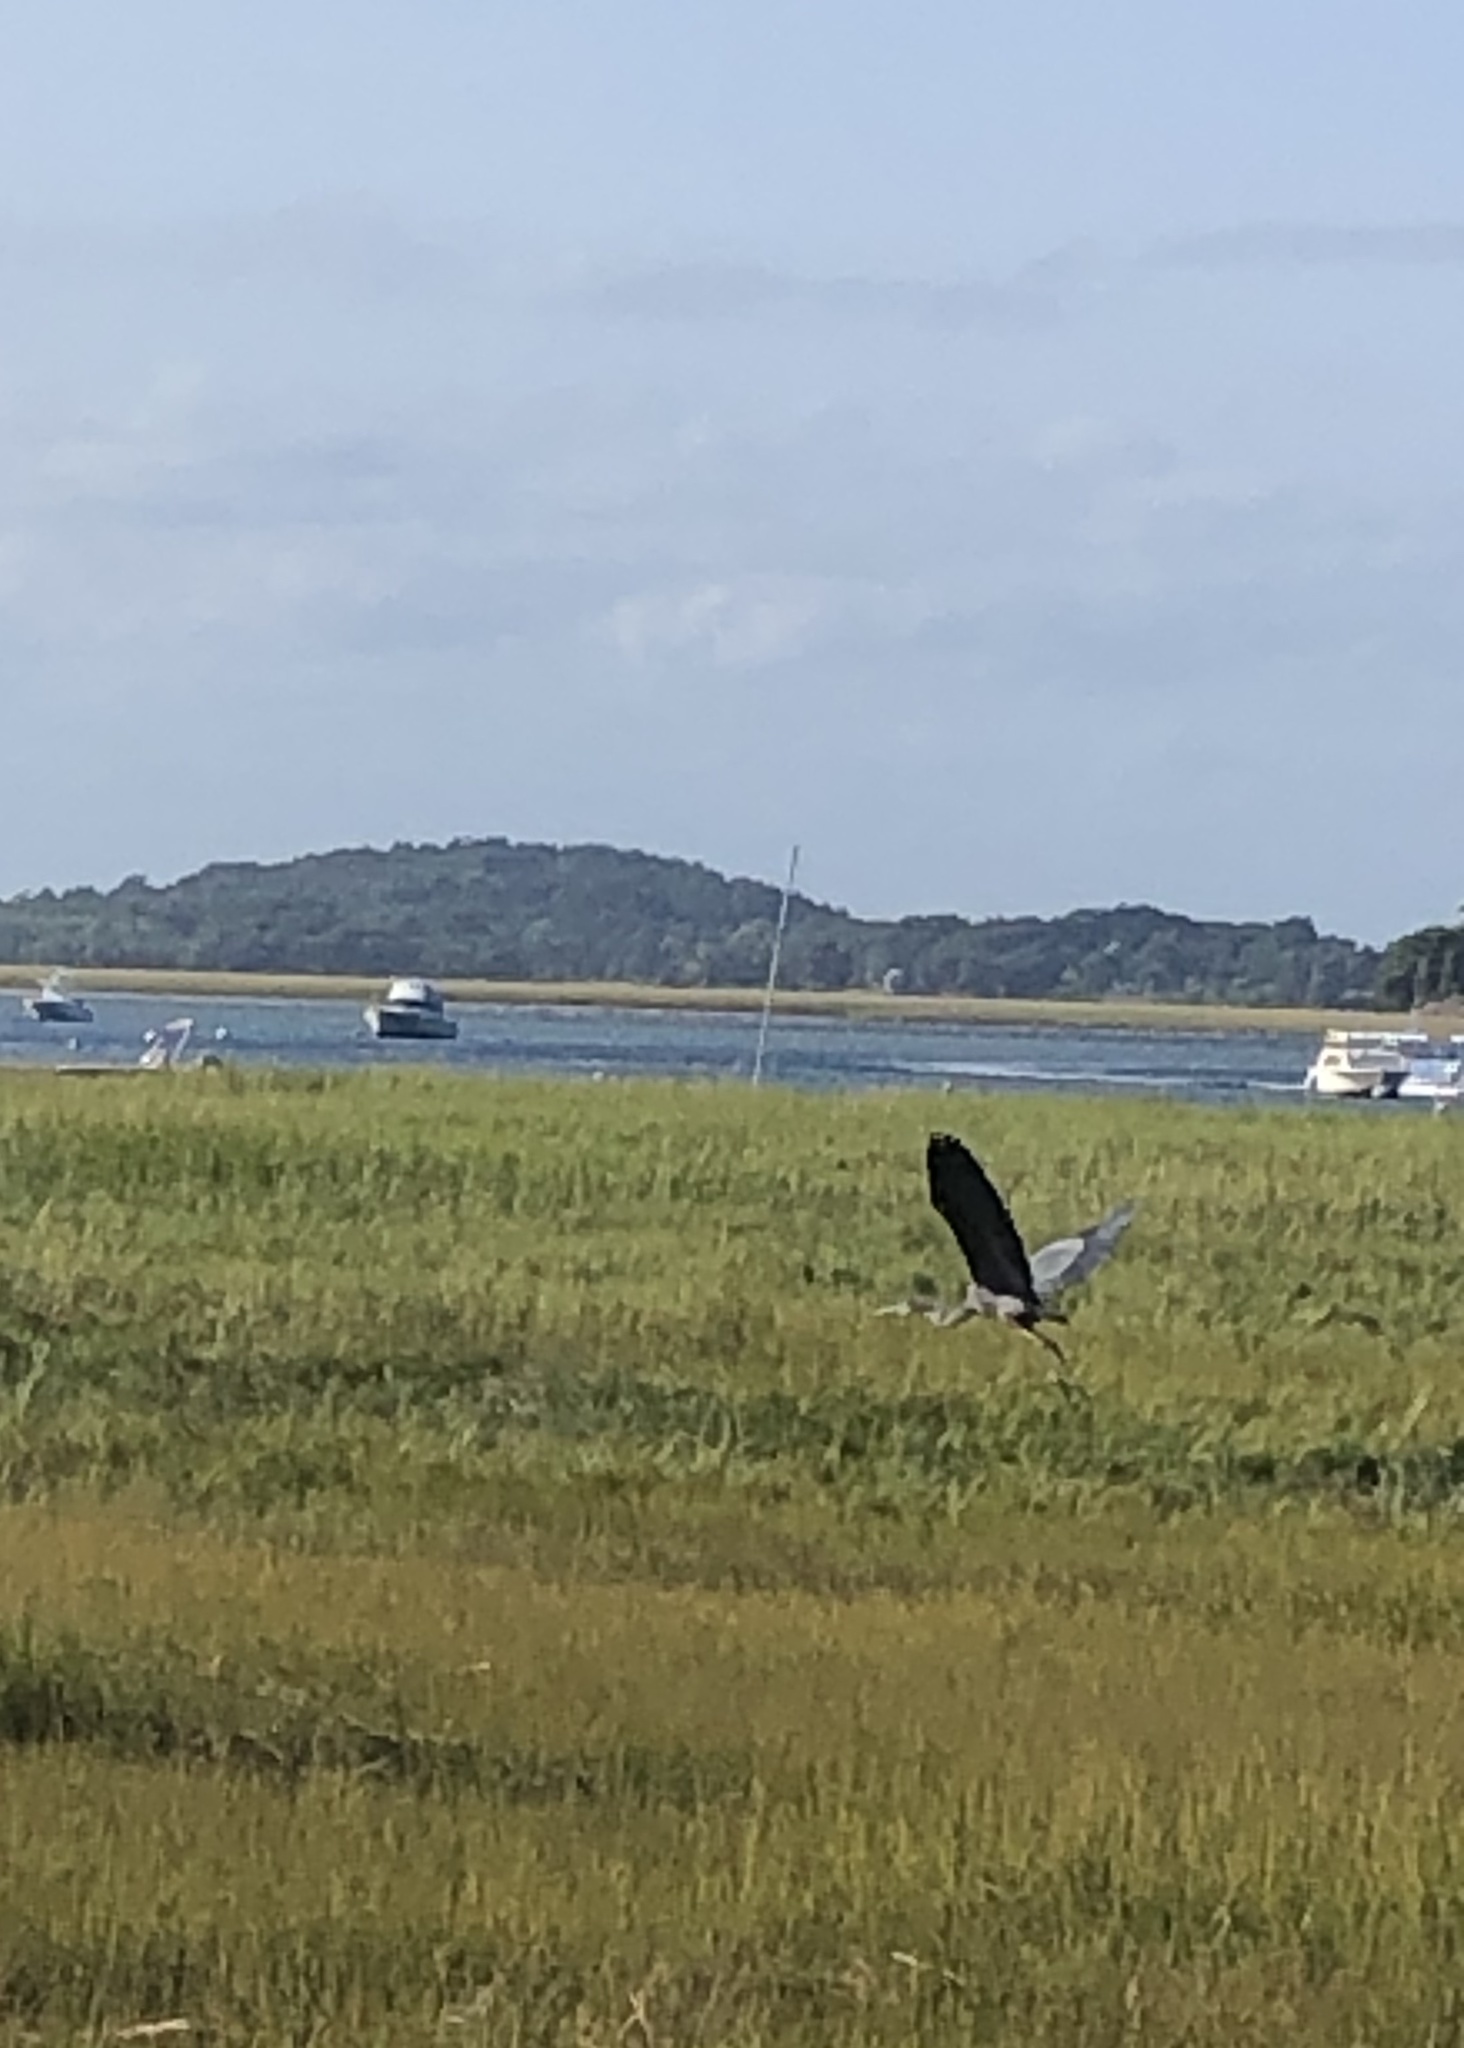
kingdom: Animalia
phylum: Chordata
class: Aves
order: Pelecaniformes
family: Ardeidae
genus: Ardea
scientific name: Ardea herodias
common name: Great blue heron
